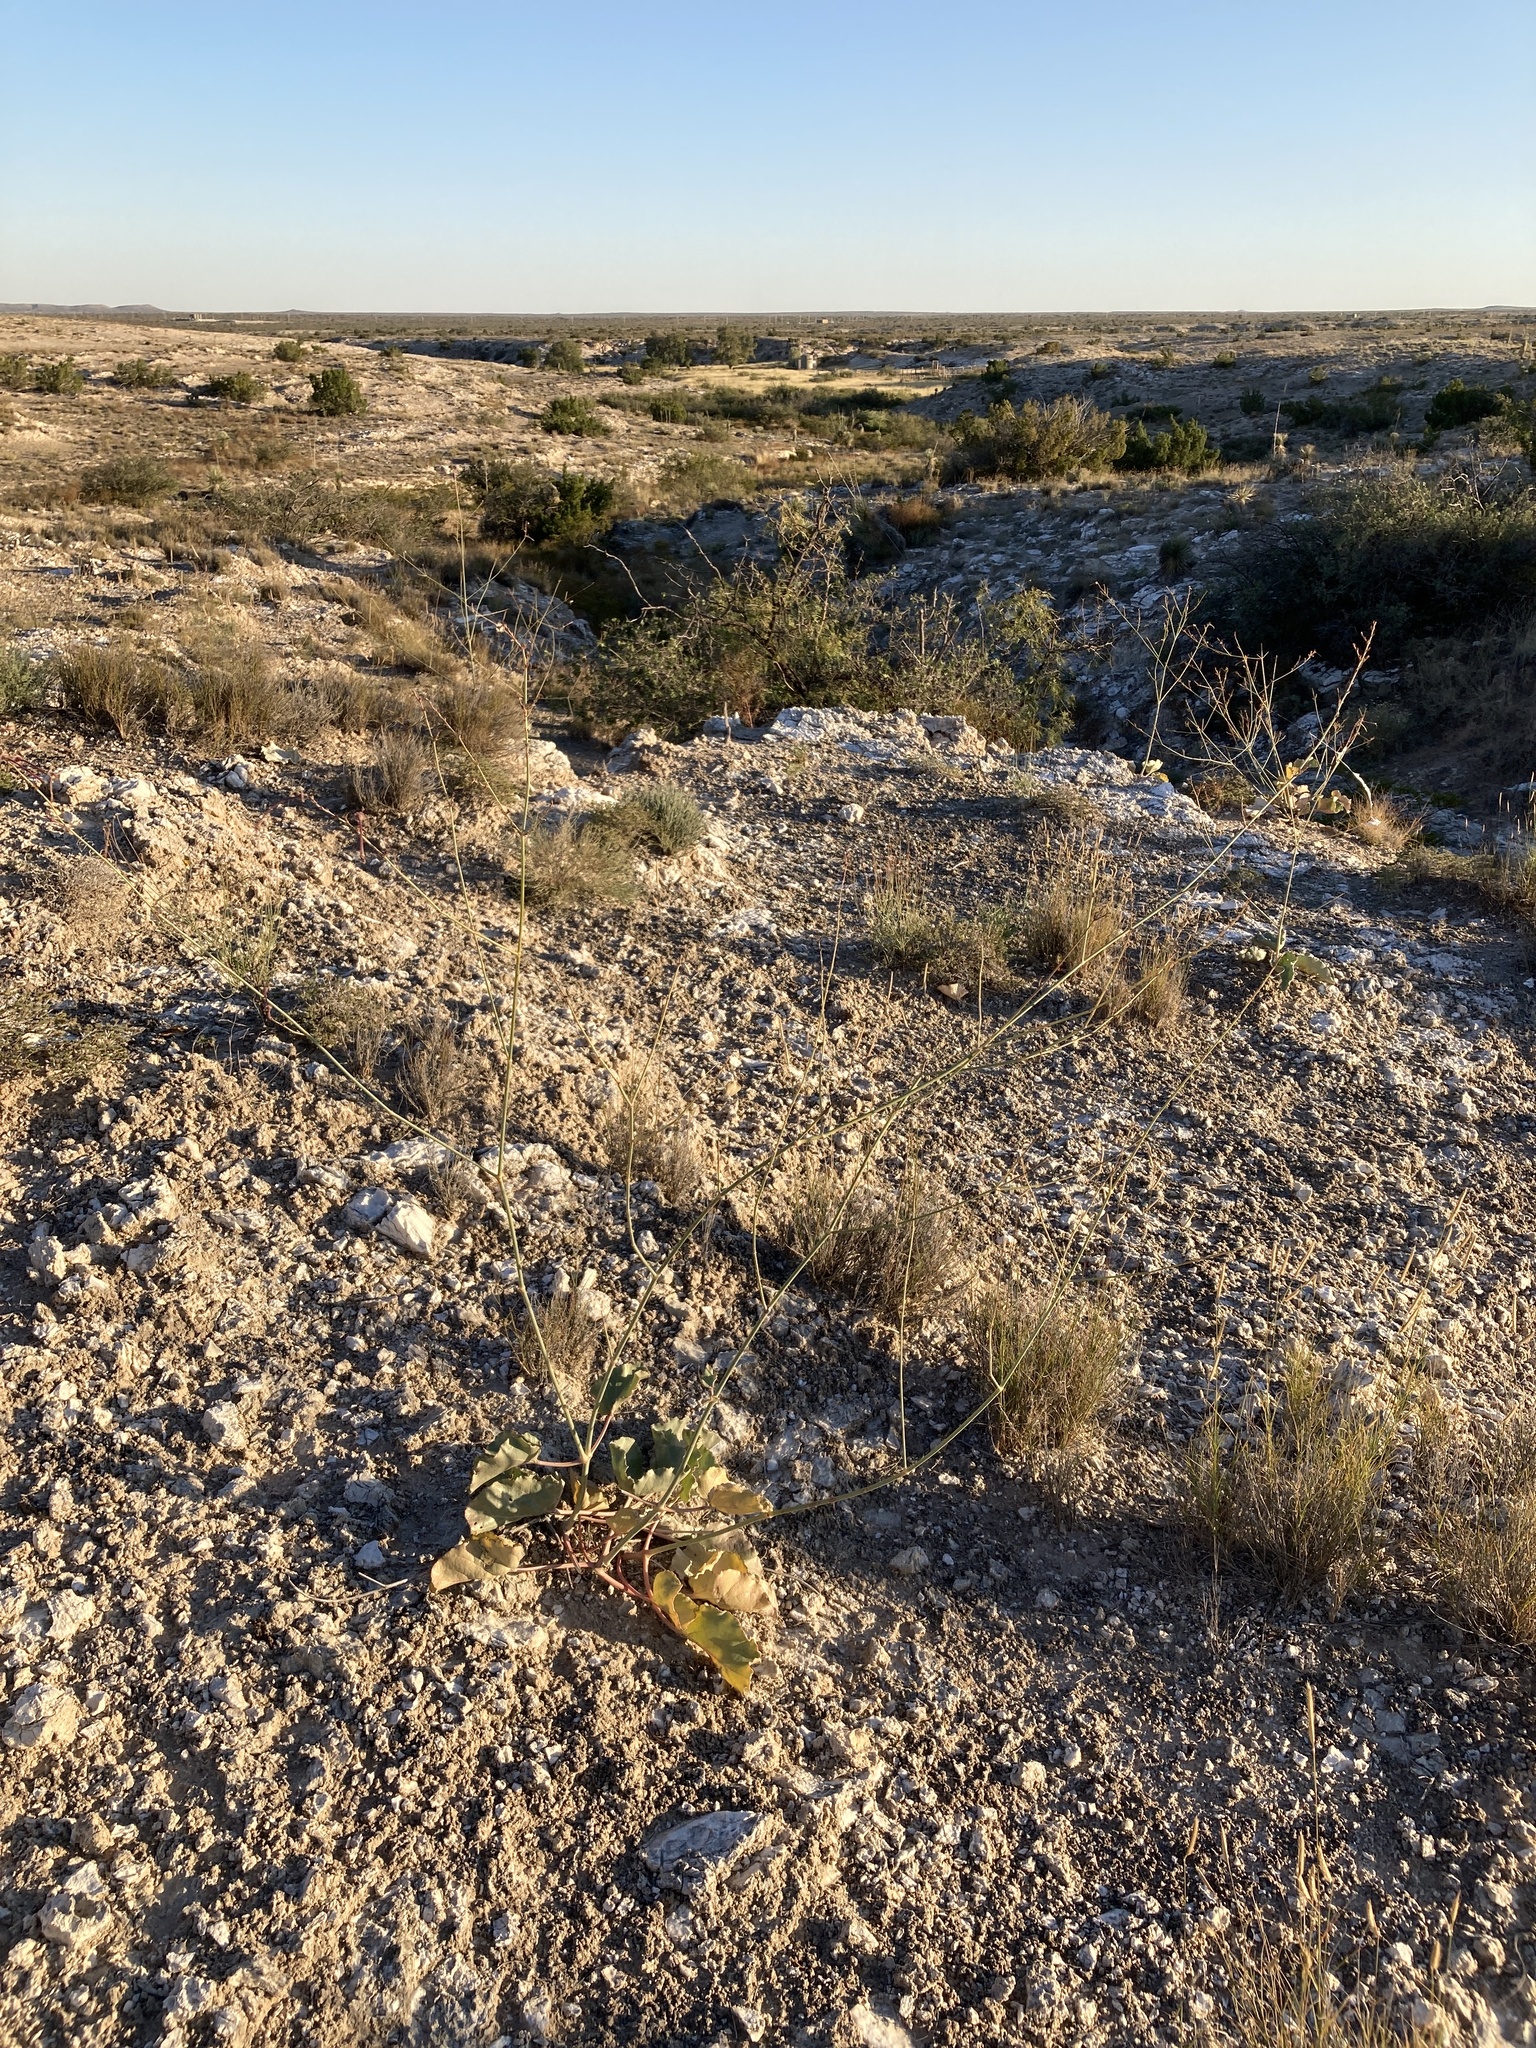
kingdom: Plantae
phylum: Tracheophyta
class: Magnoliopsida
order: Caryophyllales
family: Nyctaginaceae
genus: Anulocaulis
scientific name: Anulocaulis leiosolenus
